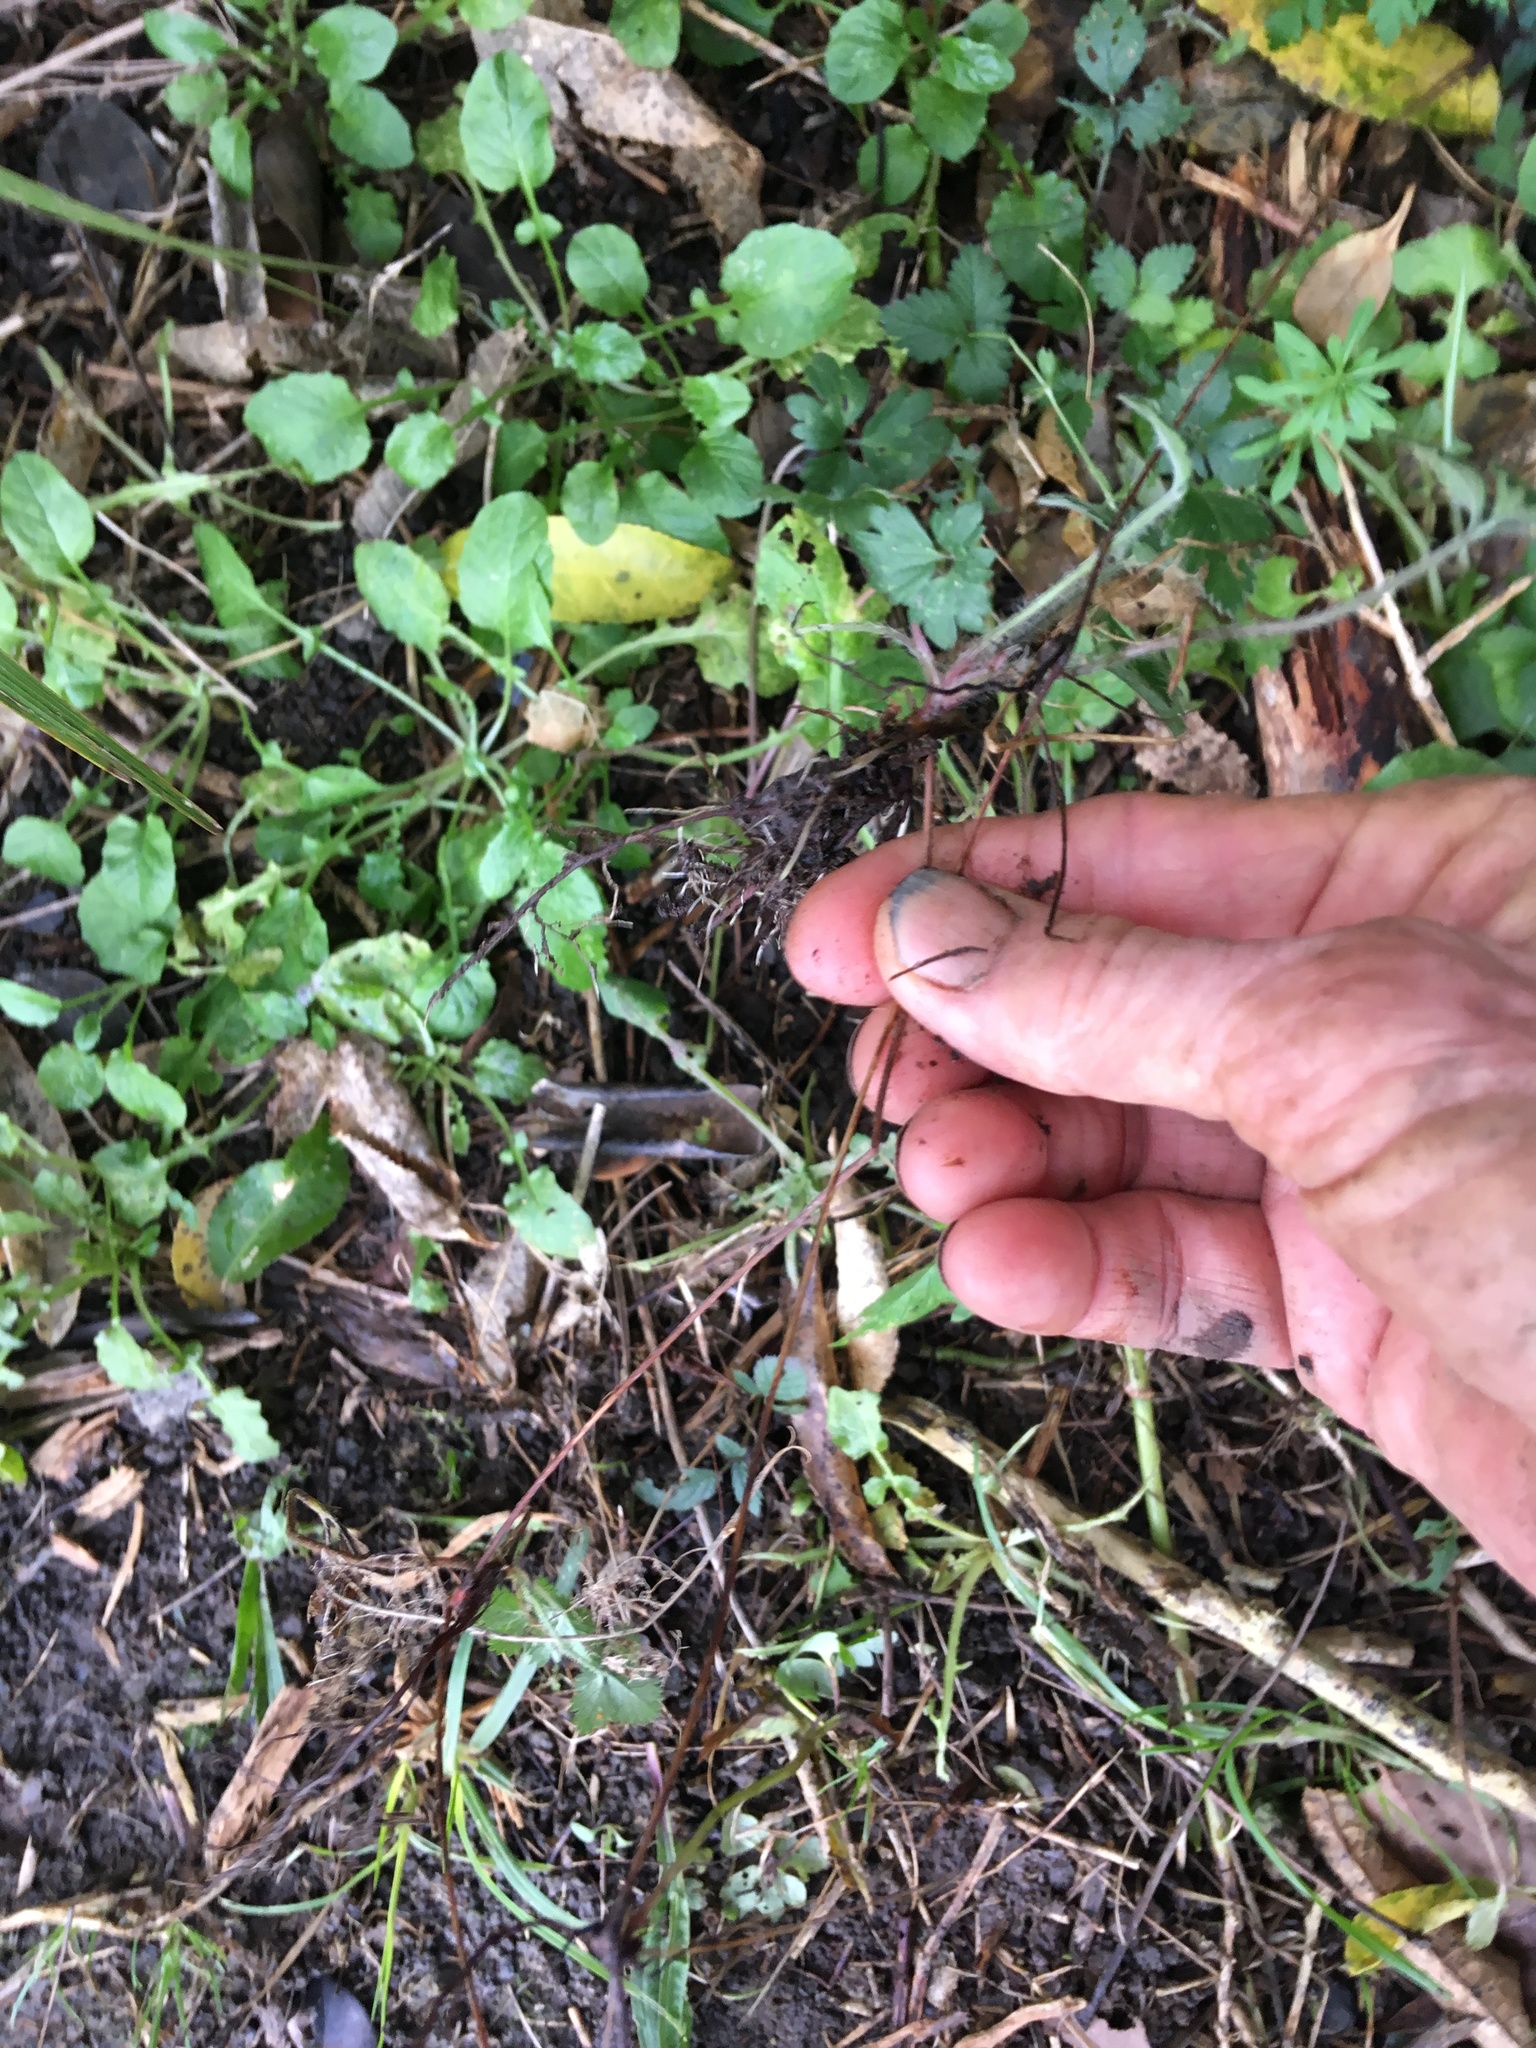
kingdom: Plantae
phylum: Tracheophyta
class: Magnoliopsida
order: Rosales
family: Rosaceae
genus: Potentilla
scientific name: Potentilla indica
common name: Yellow-flowered strawberry
